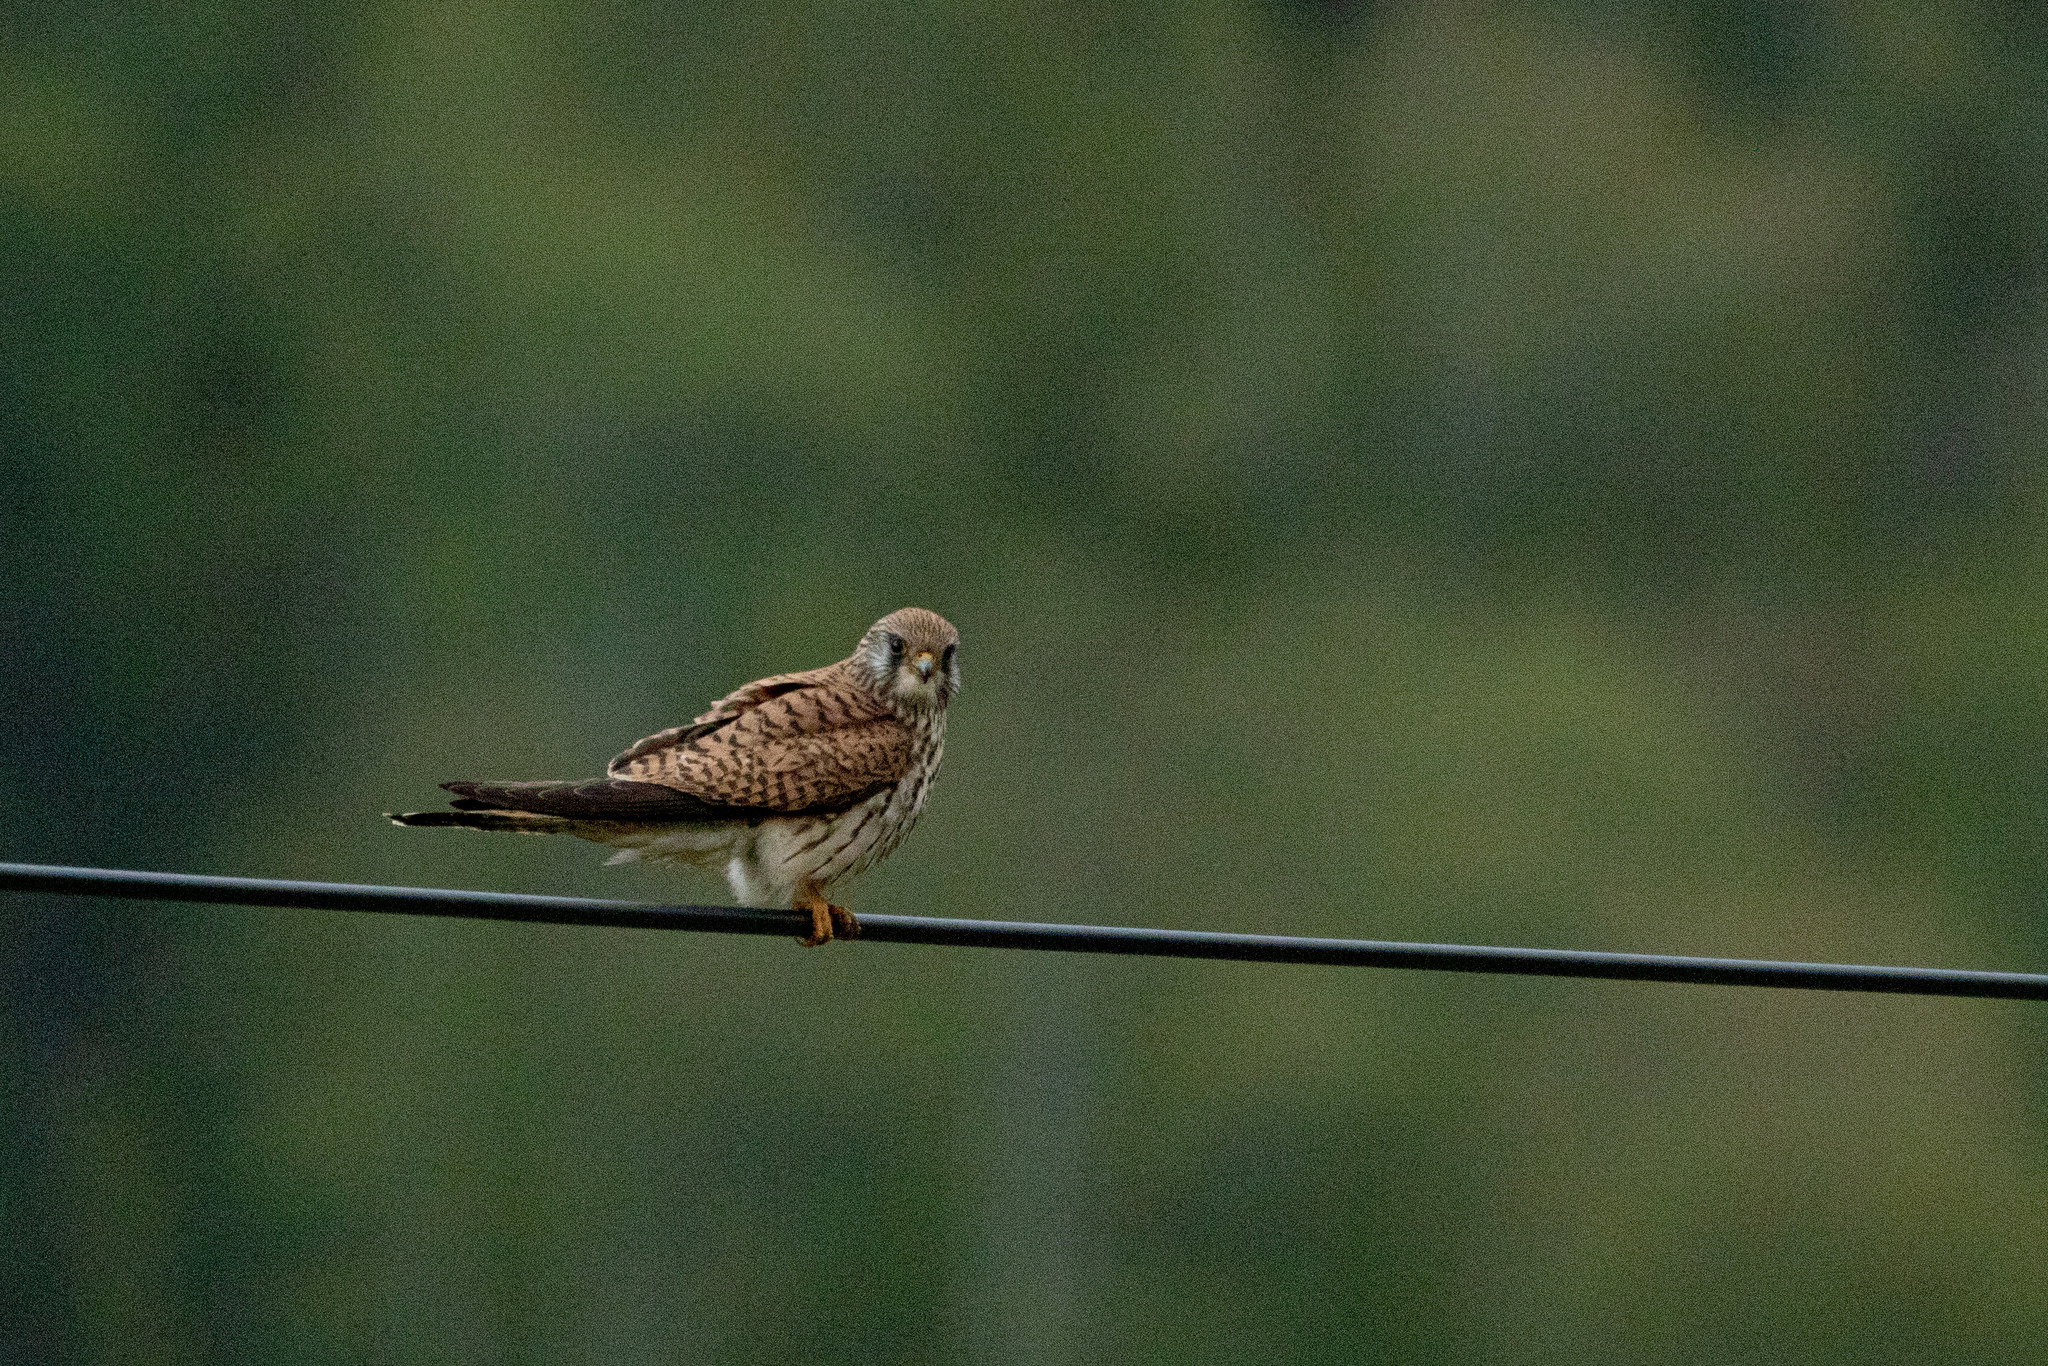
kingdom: Animalia
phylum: Chordata
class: Aves
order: Falconiformes
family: Falconidae
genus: Falco
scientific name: Falco tinnunculus
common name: Common kestrel
